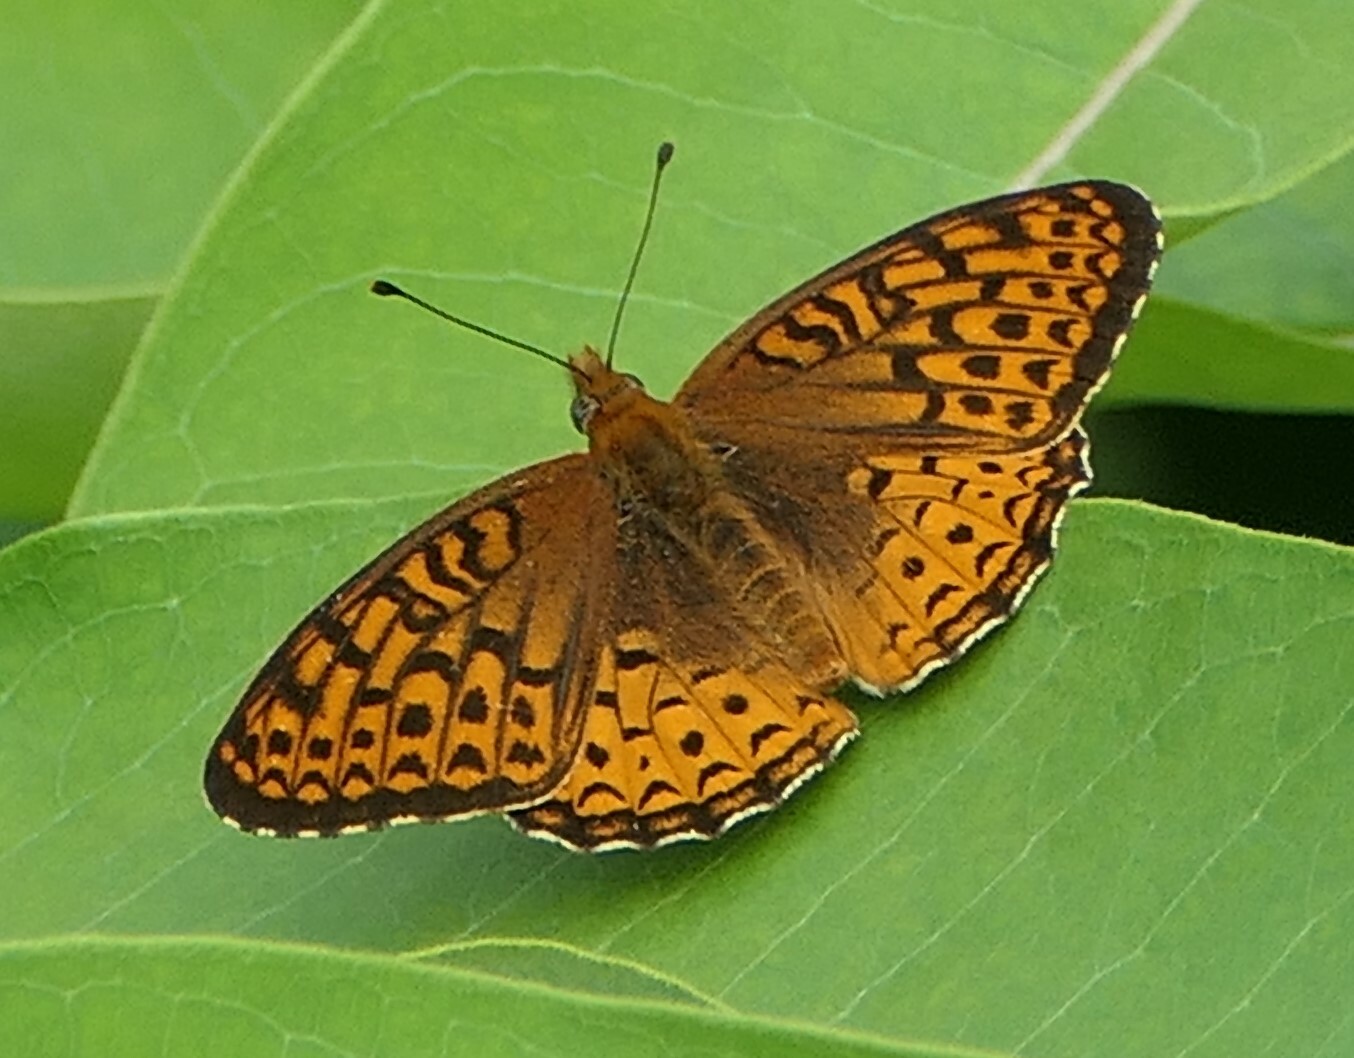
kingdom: Animalia
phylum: Arthropoda
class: Insecta
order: Lepidoptera
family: Nymphalidae
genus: Speyeria
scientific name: Speyeria atlantis
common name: Atlantis fritillary
